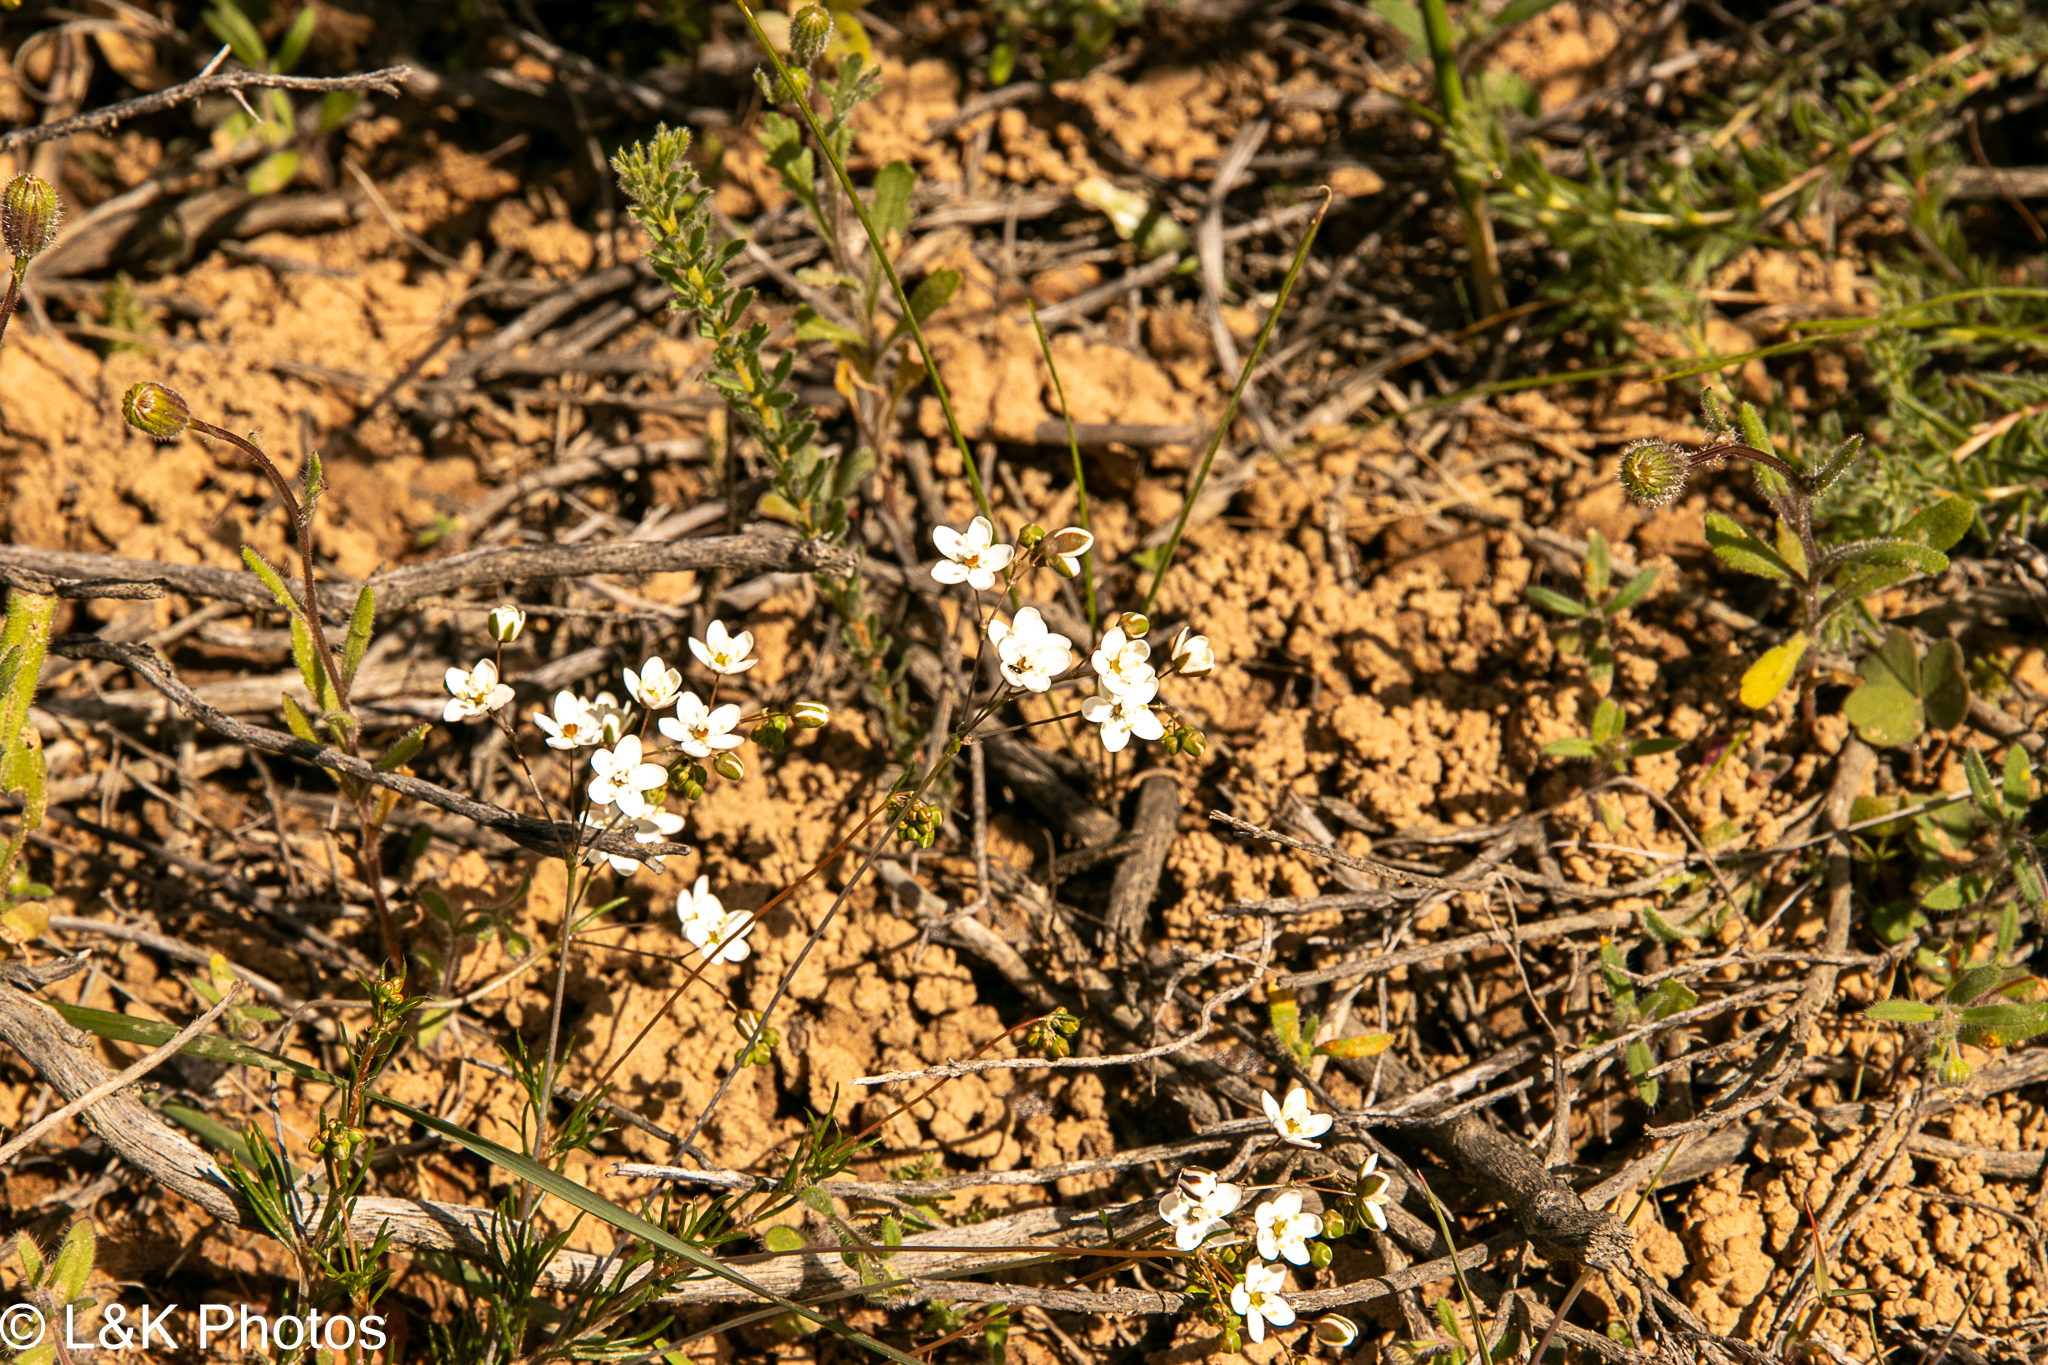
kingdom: Plantae
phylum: Tracheophyta
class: Magnoliopsida
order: Caryophyllales
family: Molluginaceae
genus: Pharnaceum
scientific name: Pharnaceum aurantium
